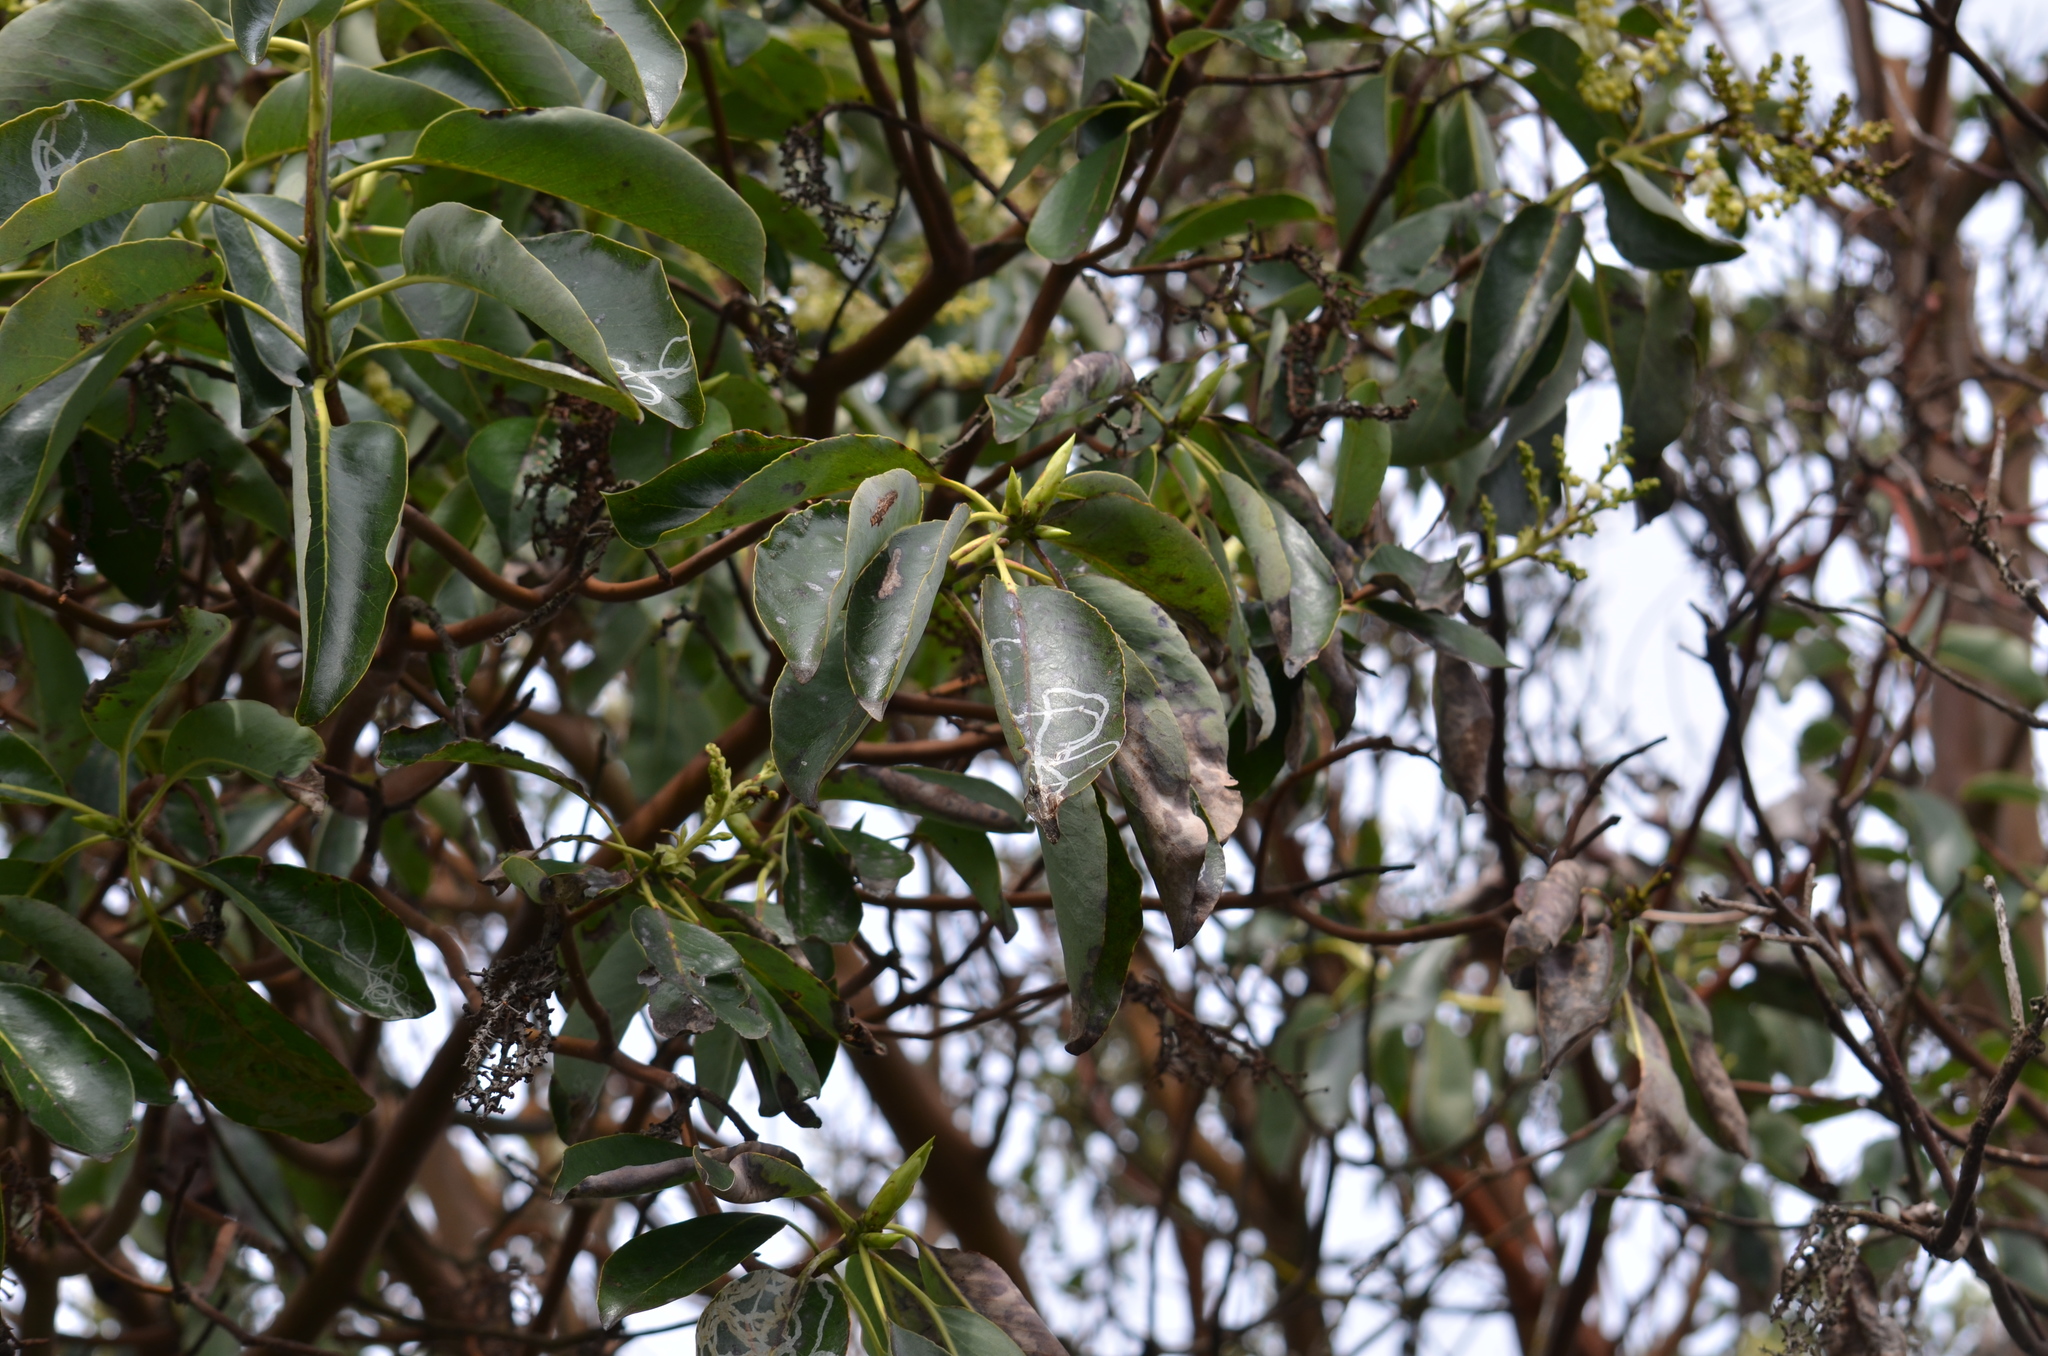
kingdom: Animalia
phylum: Arthropoda
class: Insecta
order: Lepidoptera
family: Gracillariidae
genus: Marmara
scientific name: Marmara arbutiella
